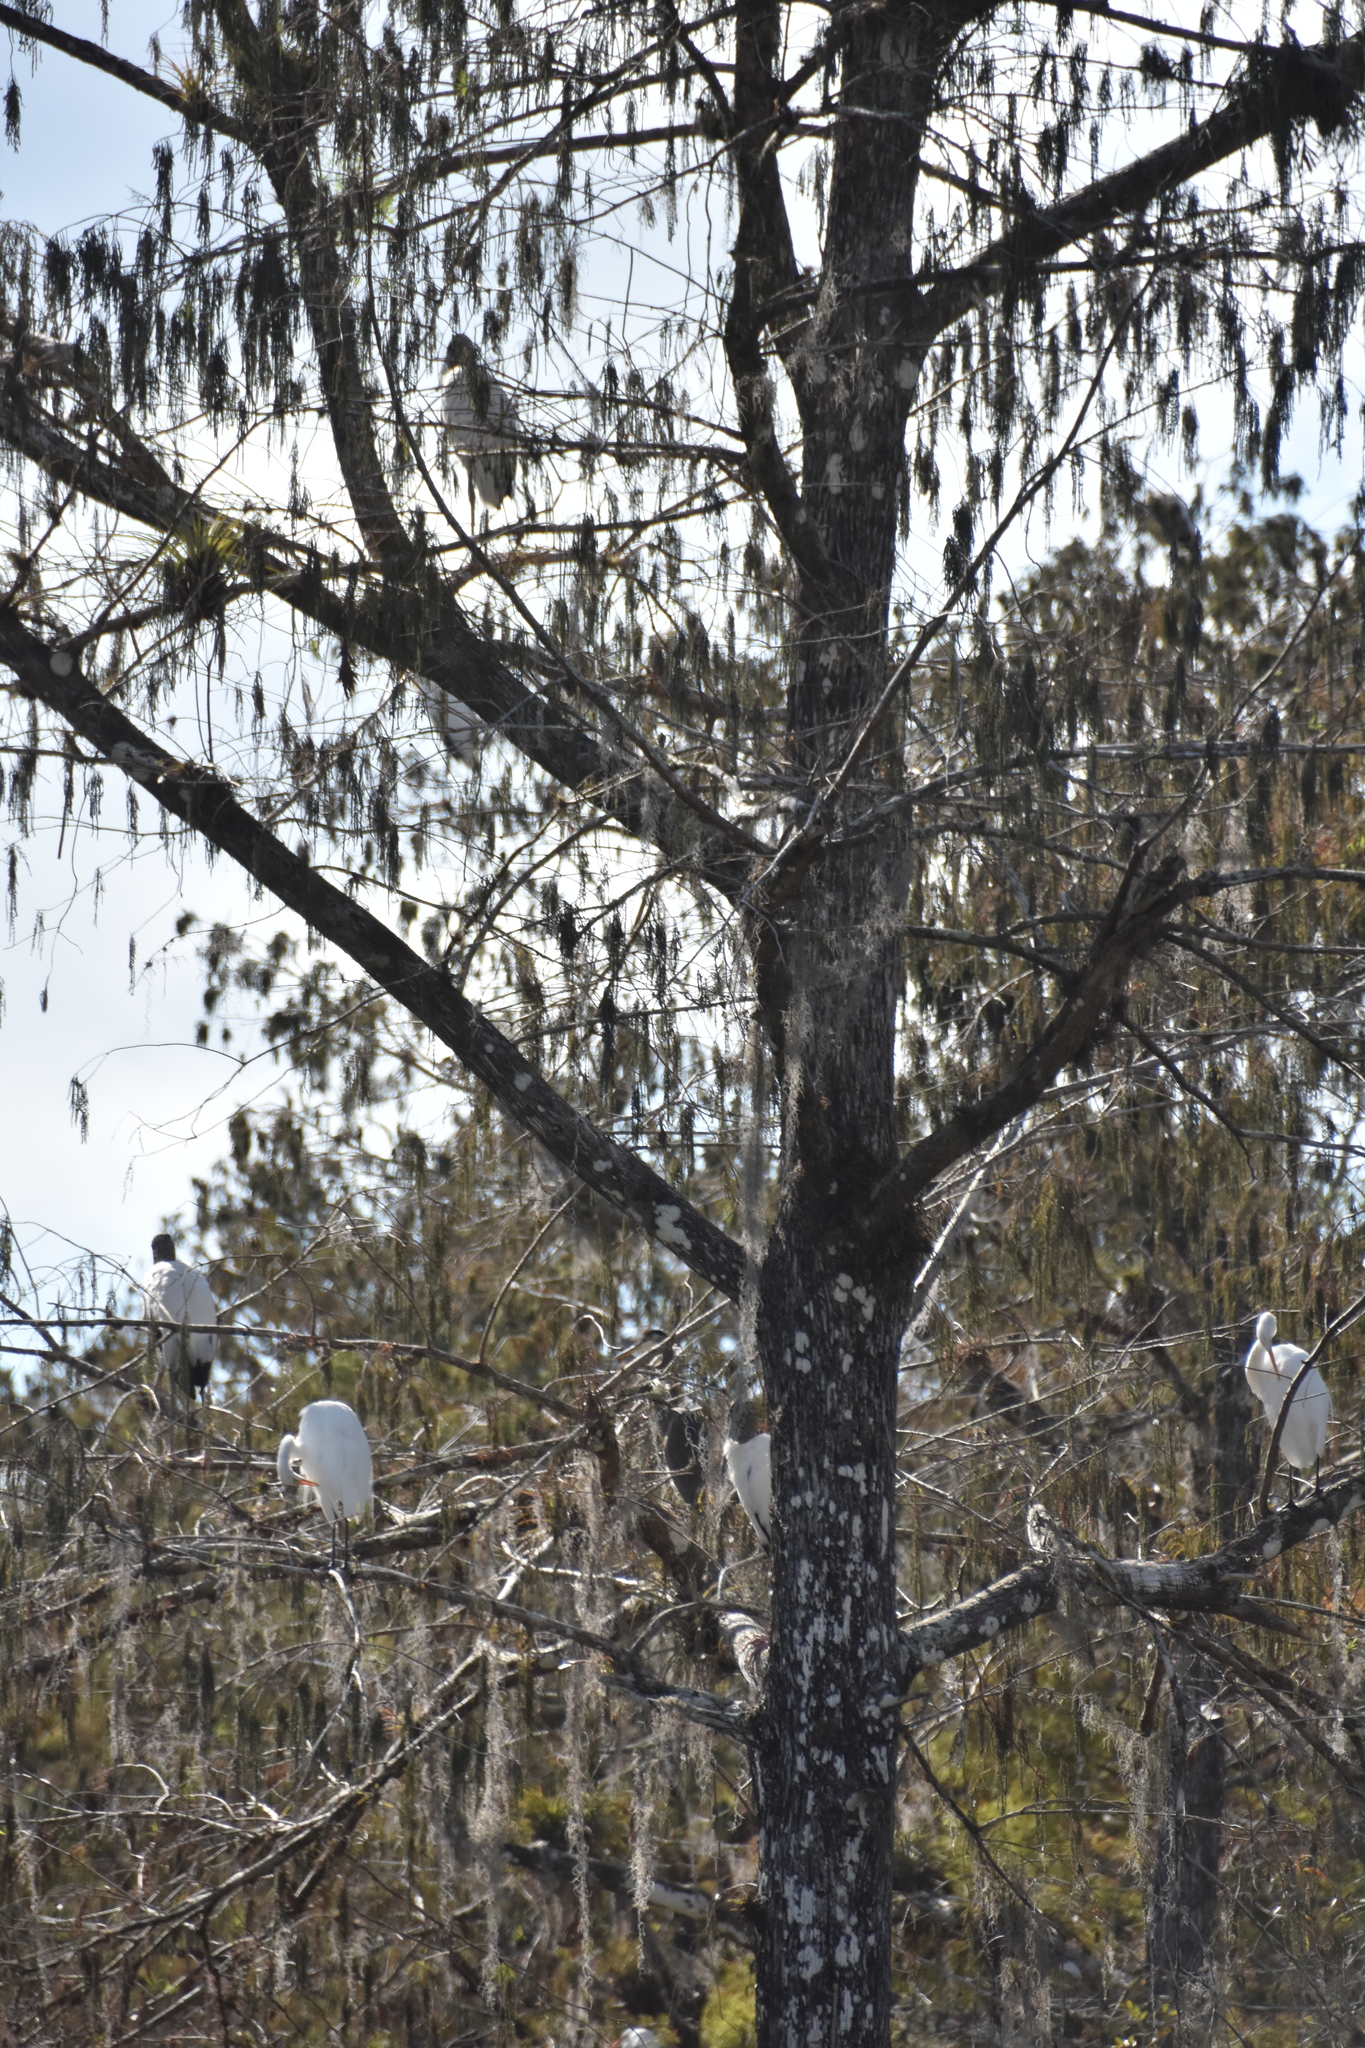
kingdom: Animalia
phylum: Chordata
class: Aves
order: Ciconiiformes
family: Ciconiidae
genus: Mycteria
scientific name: Mycteria americana
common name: Wood stork
